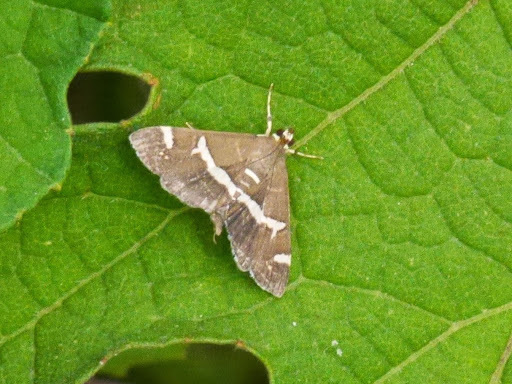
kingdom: Animalia
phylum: Arthropoda
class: Insecta
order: Lepidoptera
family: Crambidae
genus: Spoladea
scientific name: Spoladea recurvalis
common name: Beet webworm moth
